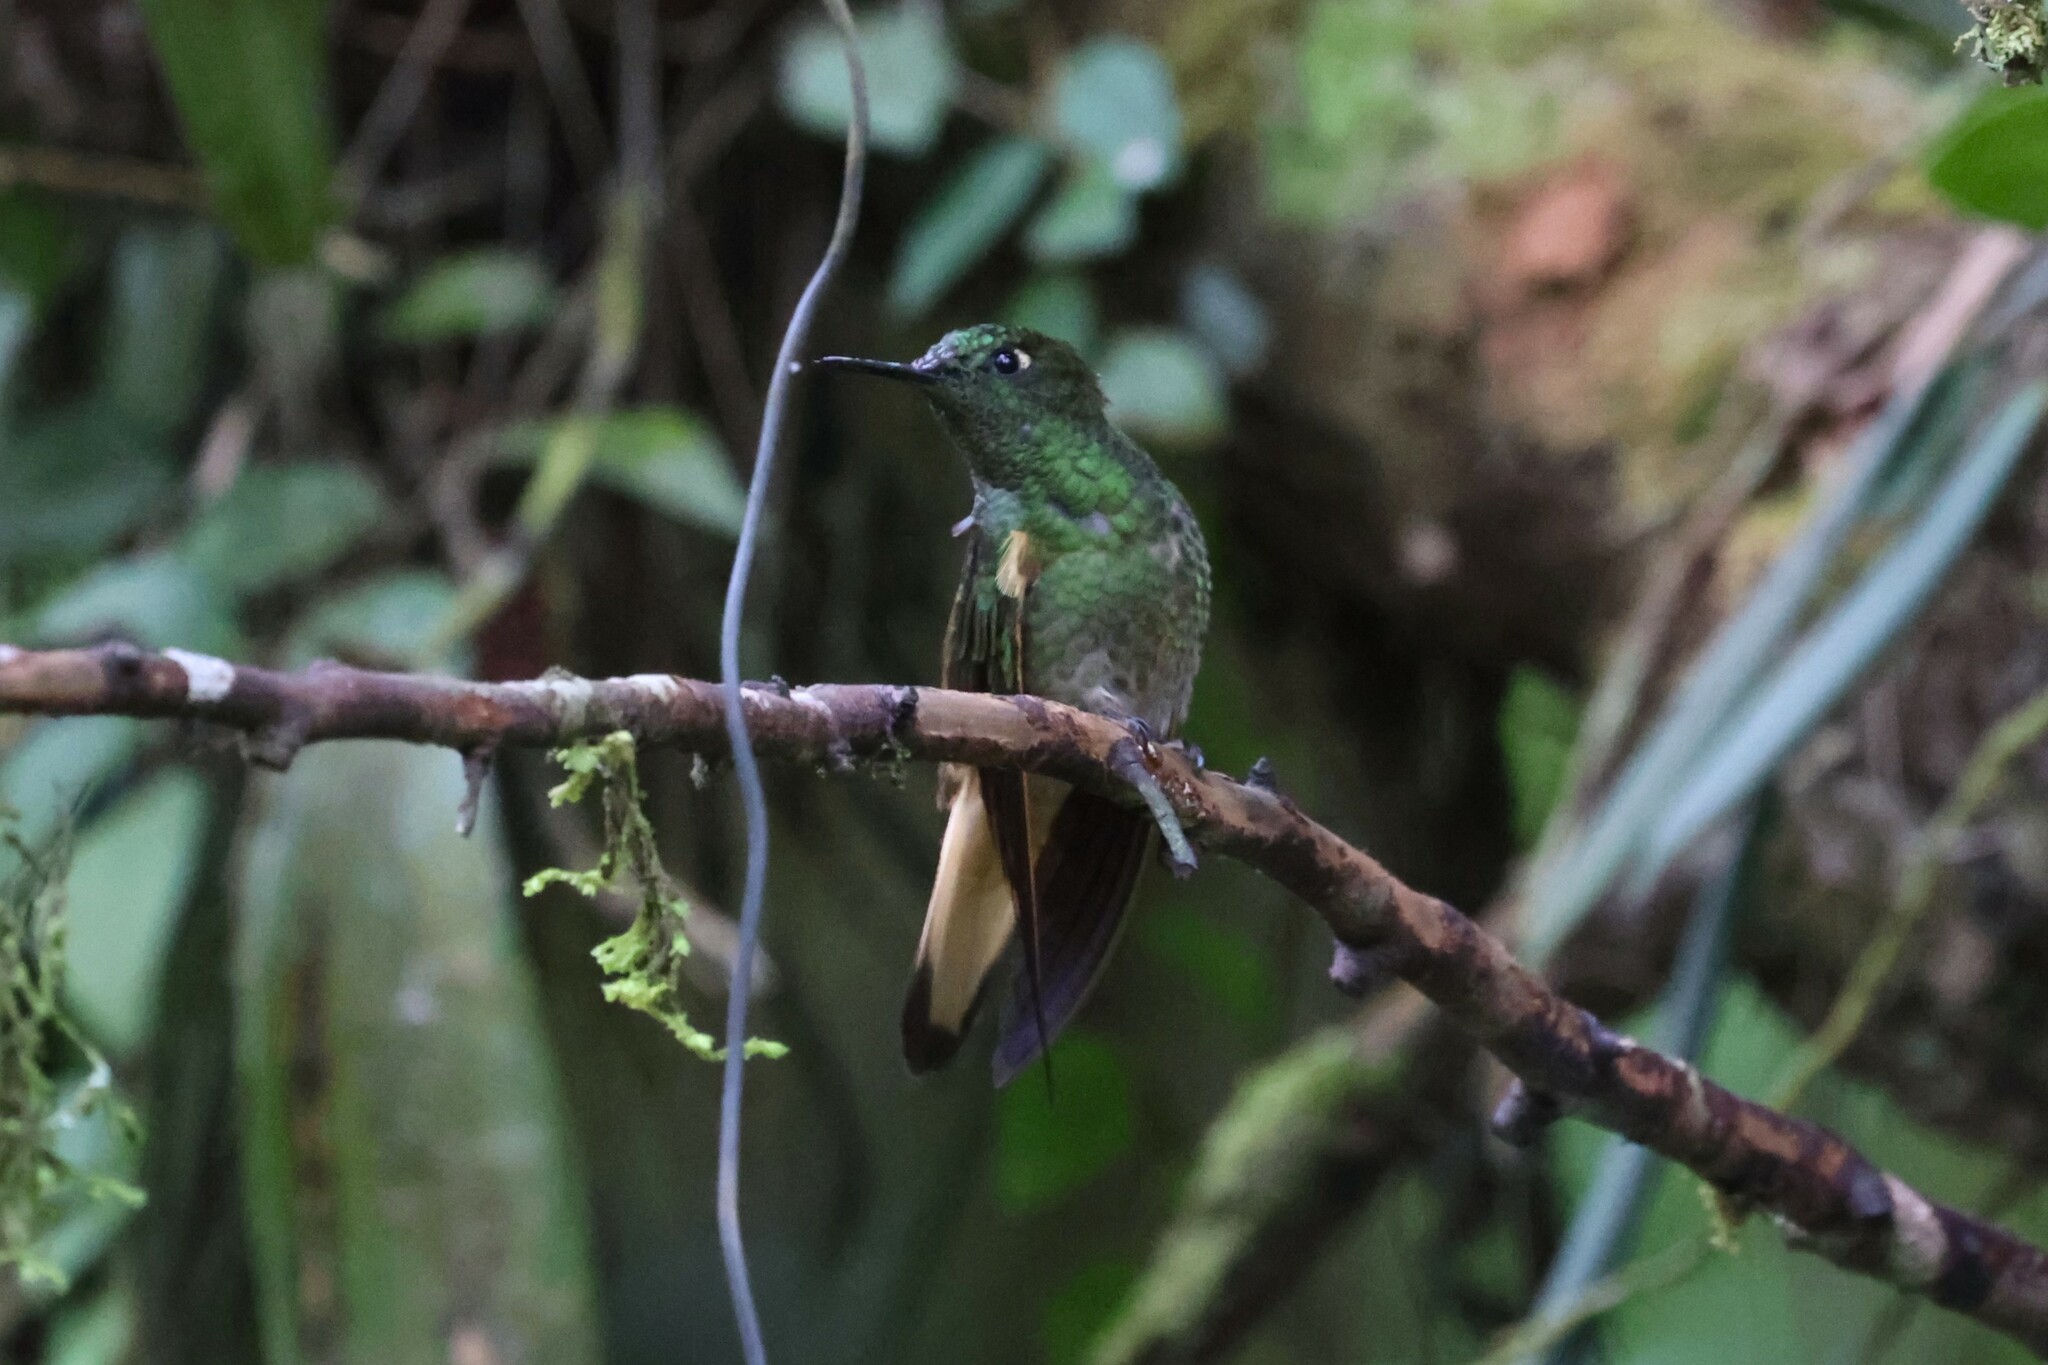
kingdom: Animalia
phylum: Chordata
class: Aves
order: Apodiformes
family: Trochilidae
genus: Boissonneaua
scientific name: Boissonneaua flavescens
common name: Buff-tailed coronet
